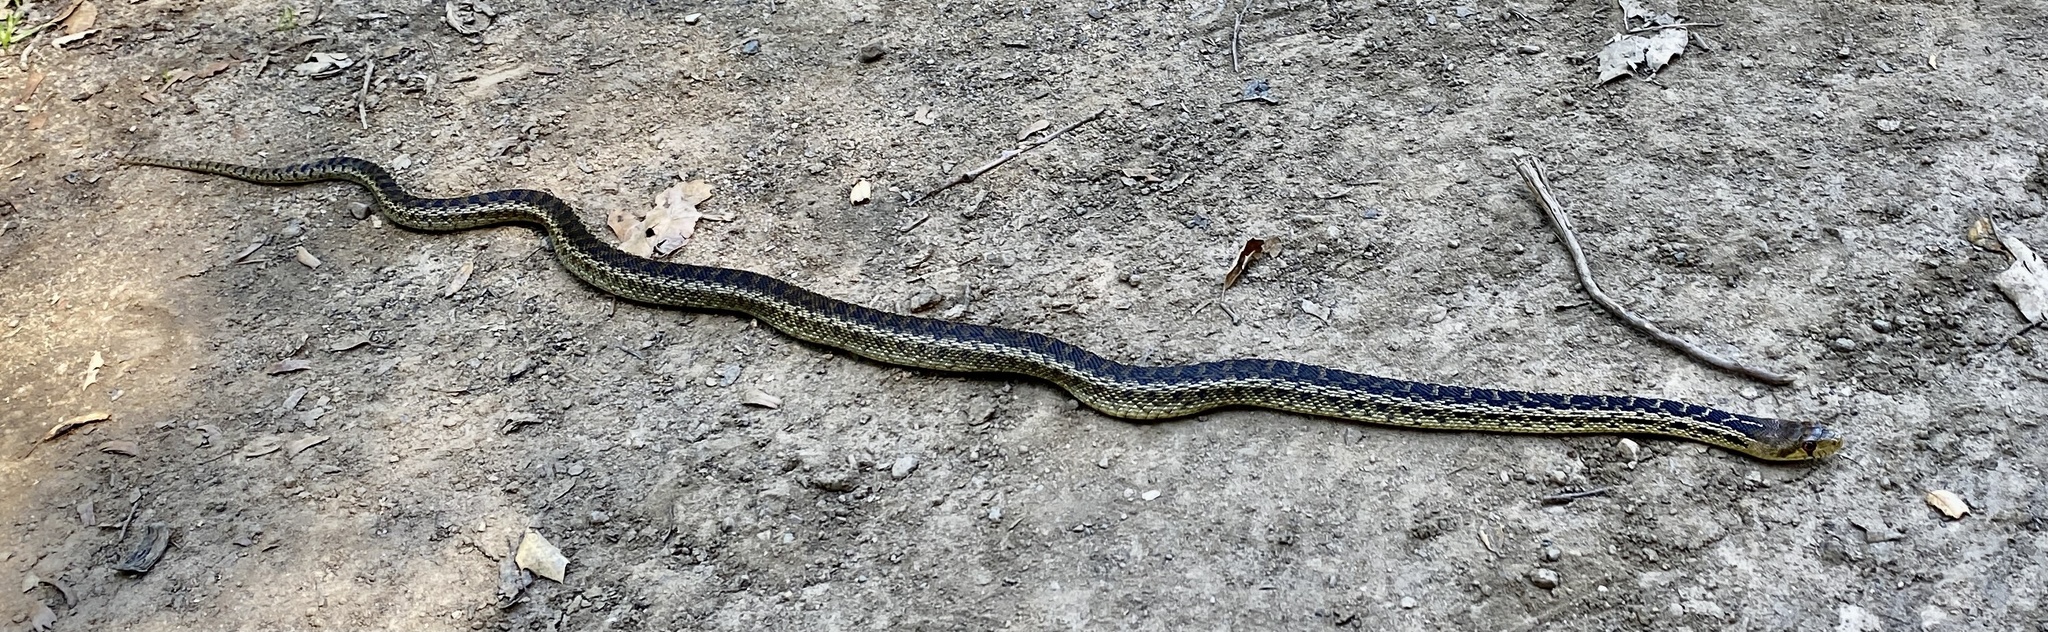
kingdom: Animalia
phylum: Chordata
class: Squamata
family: Colubridae
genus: Pituophis
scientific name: Pituophis catenifer
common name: Gopher snake
